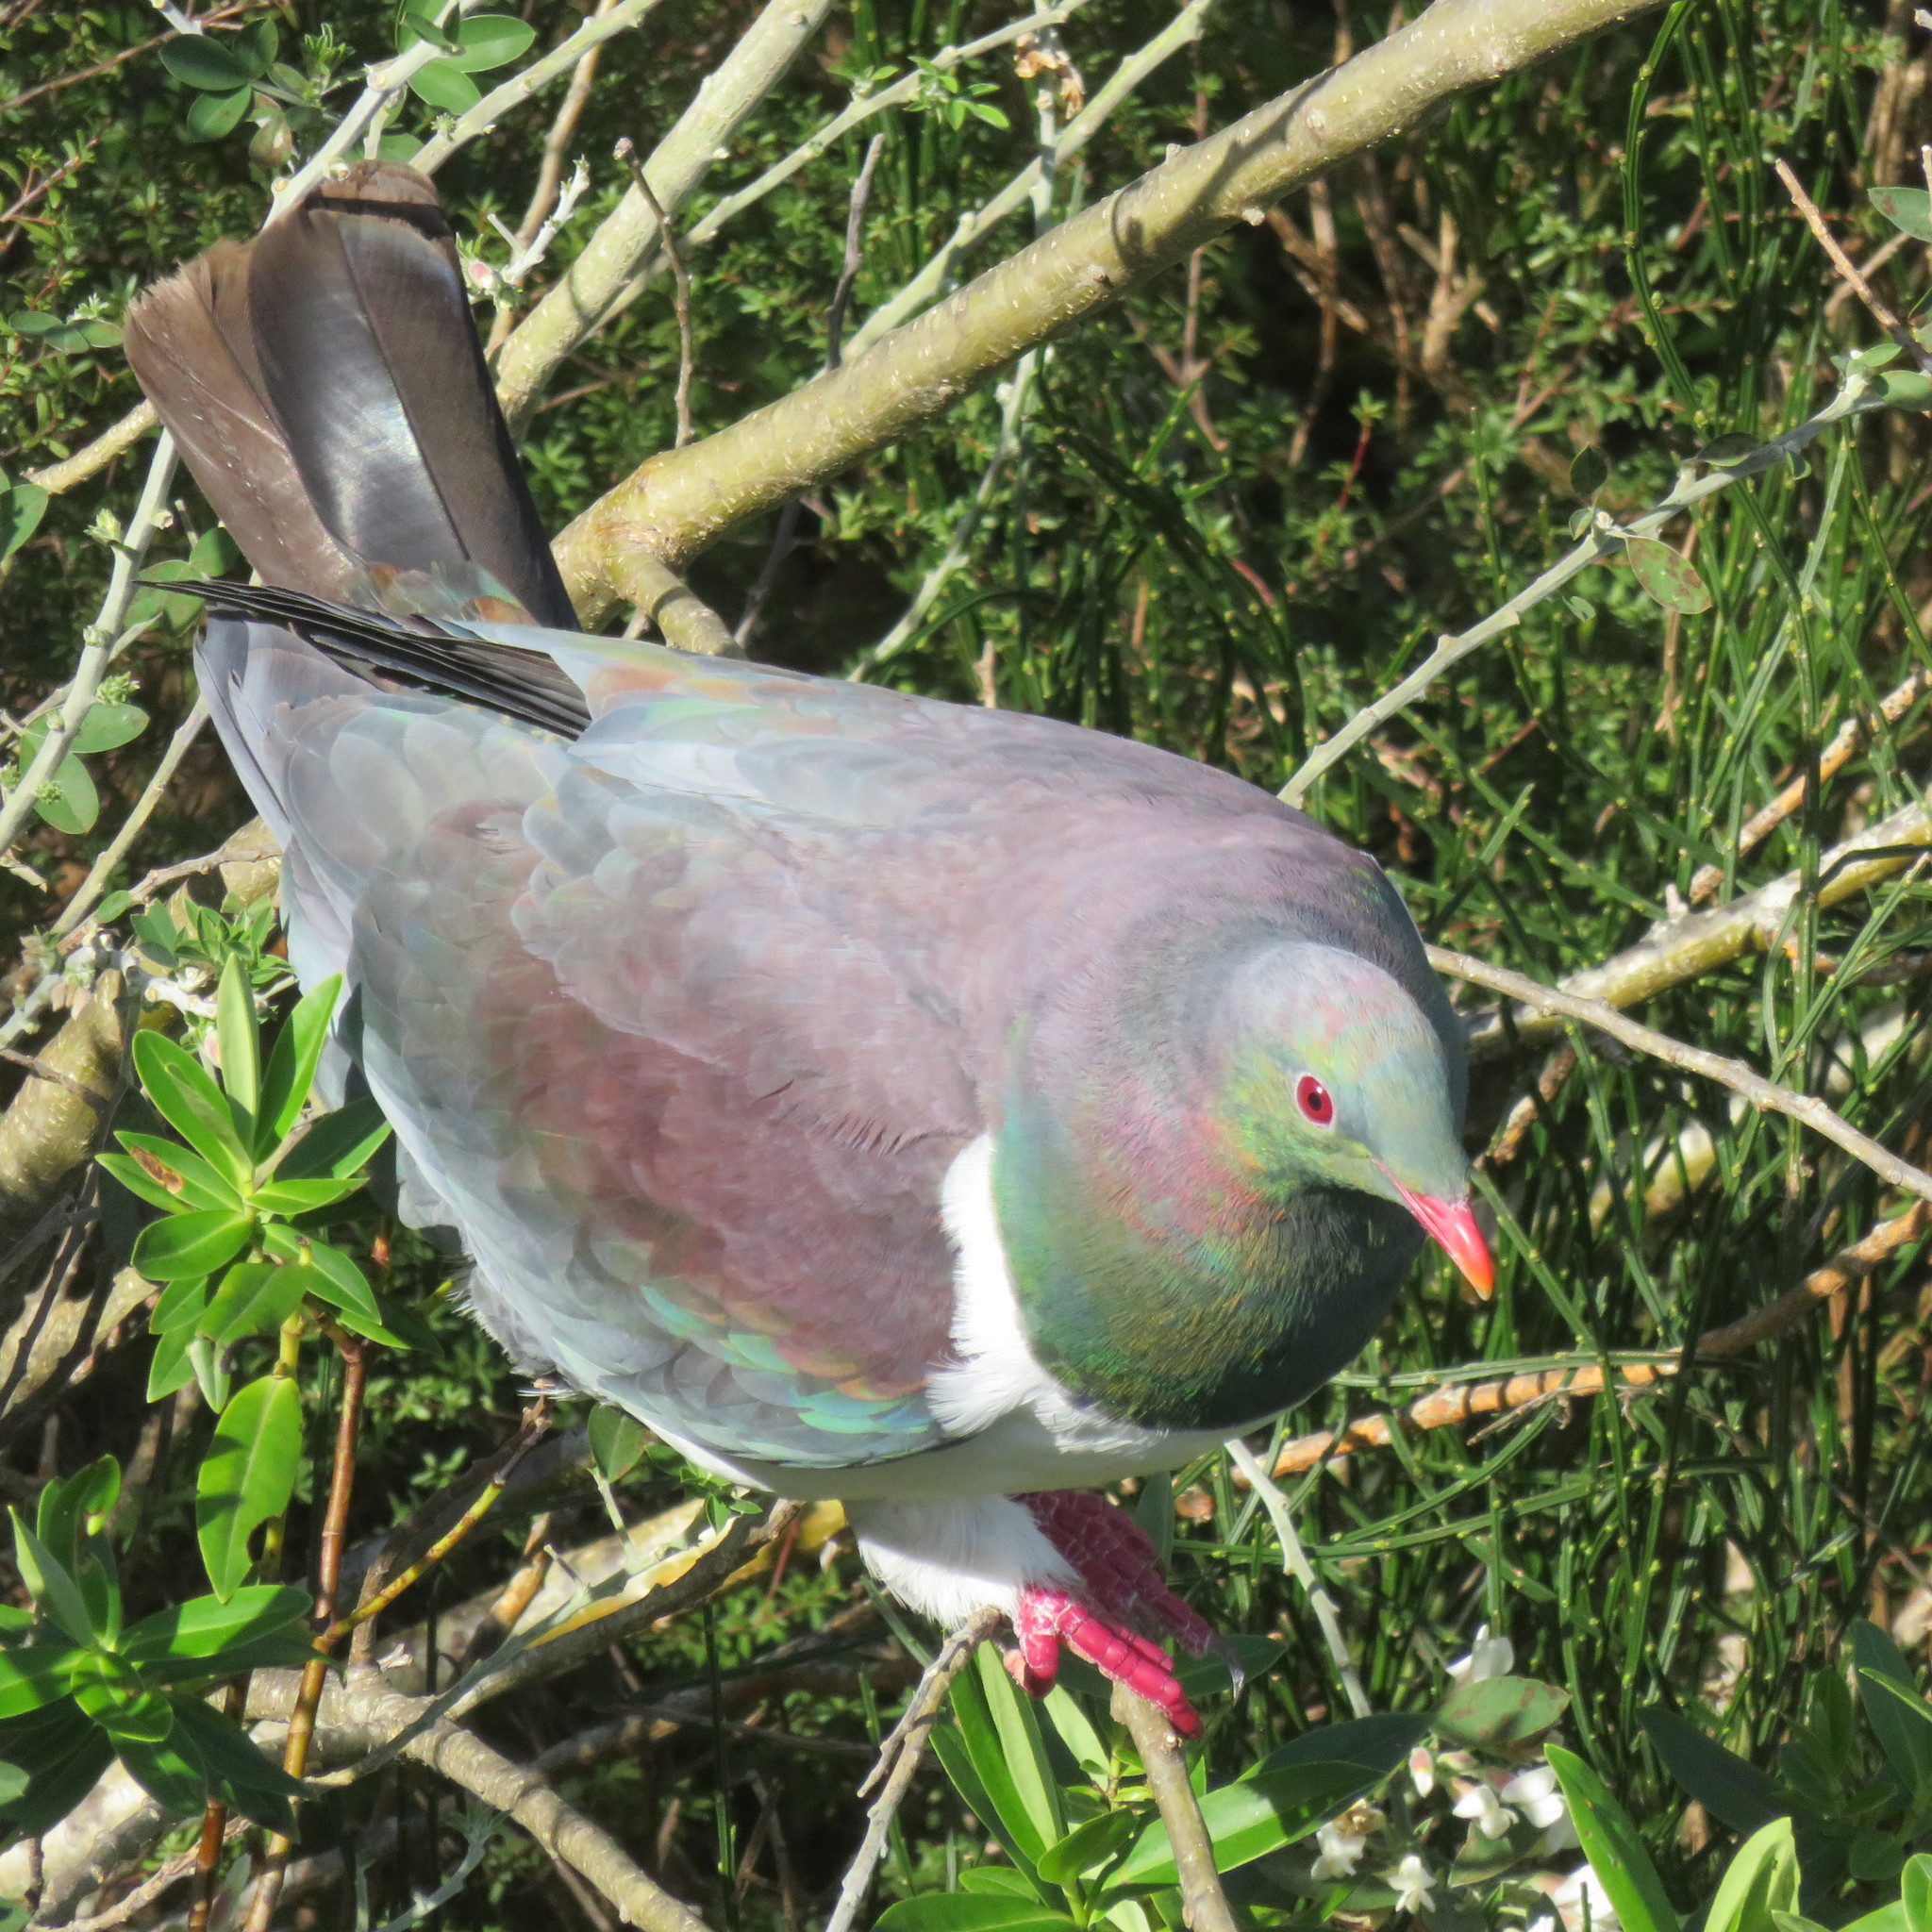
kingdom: Animalia
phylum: Chordata
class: Aves
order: Columbiformes
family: Columbidae
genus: Hemiphaga
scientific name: Hemiphaga novaeseelandiae
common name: New zealand pigeon
